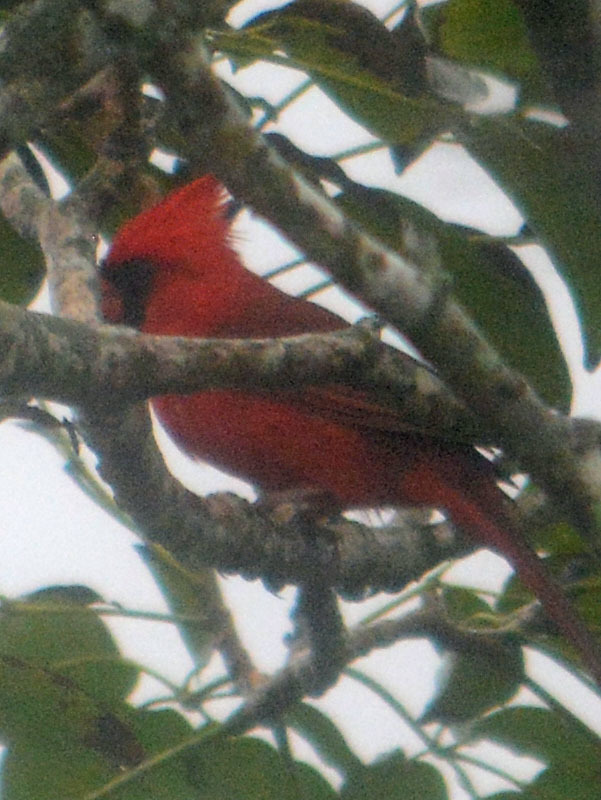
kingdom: Animalia
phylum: Chordata
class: Aves
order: Passeriformes
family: Cardinalidae
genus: Cardinalis
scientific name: Cardinalis cardinalis
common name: Northern cardinal
